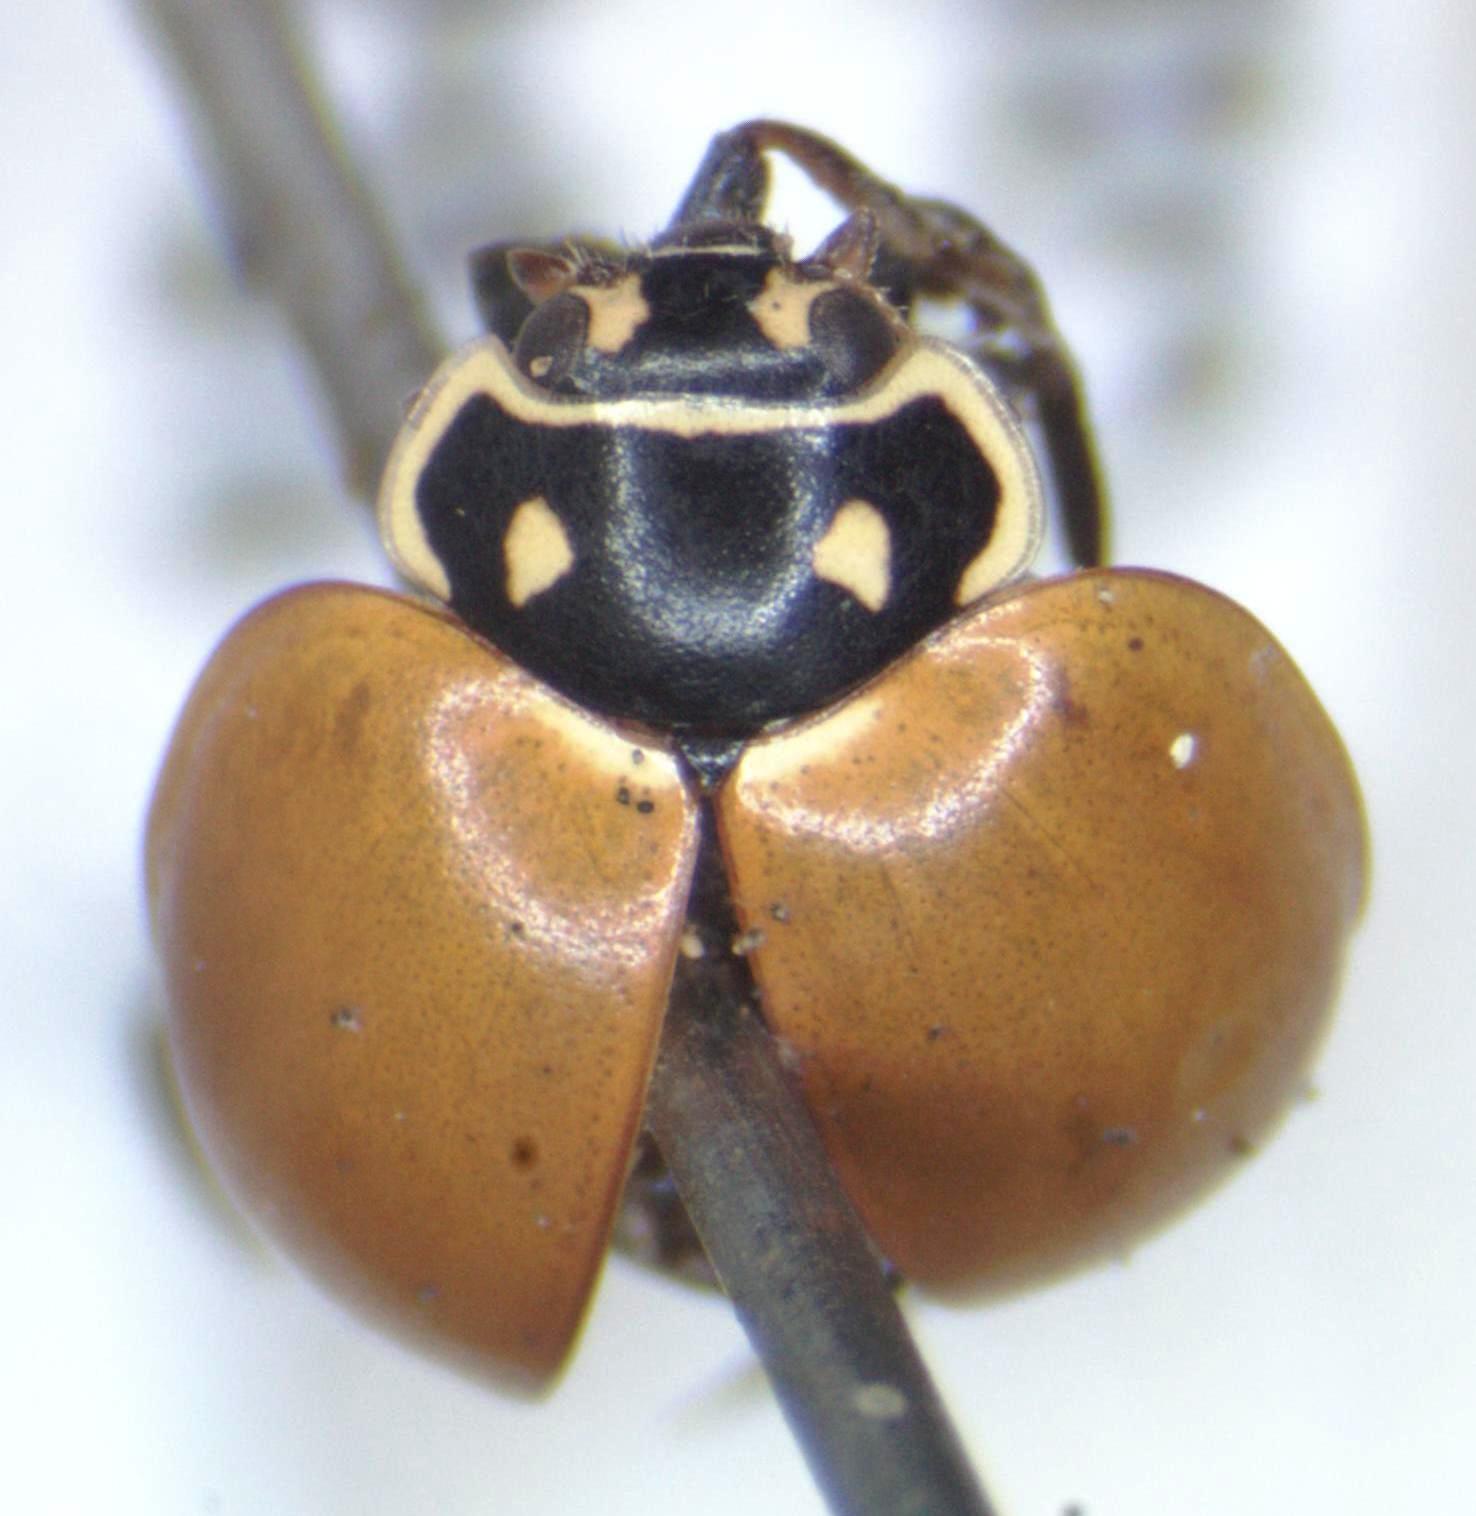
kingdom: Animalia
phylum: Arthropoda
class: Insecta
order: Coleoptera
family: Coccinellidae
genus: Cycloneda
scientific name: Cycloneda emarginata
